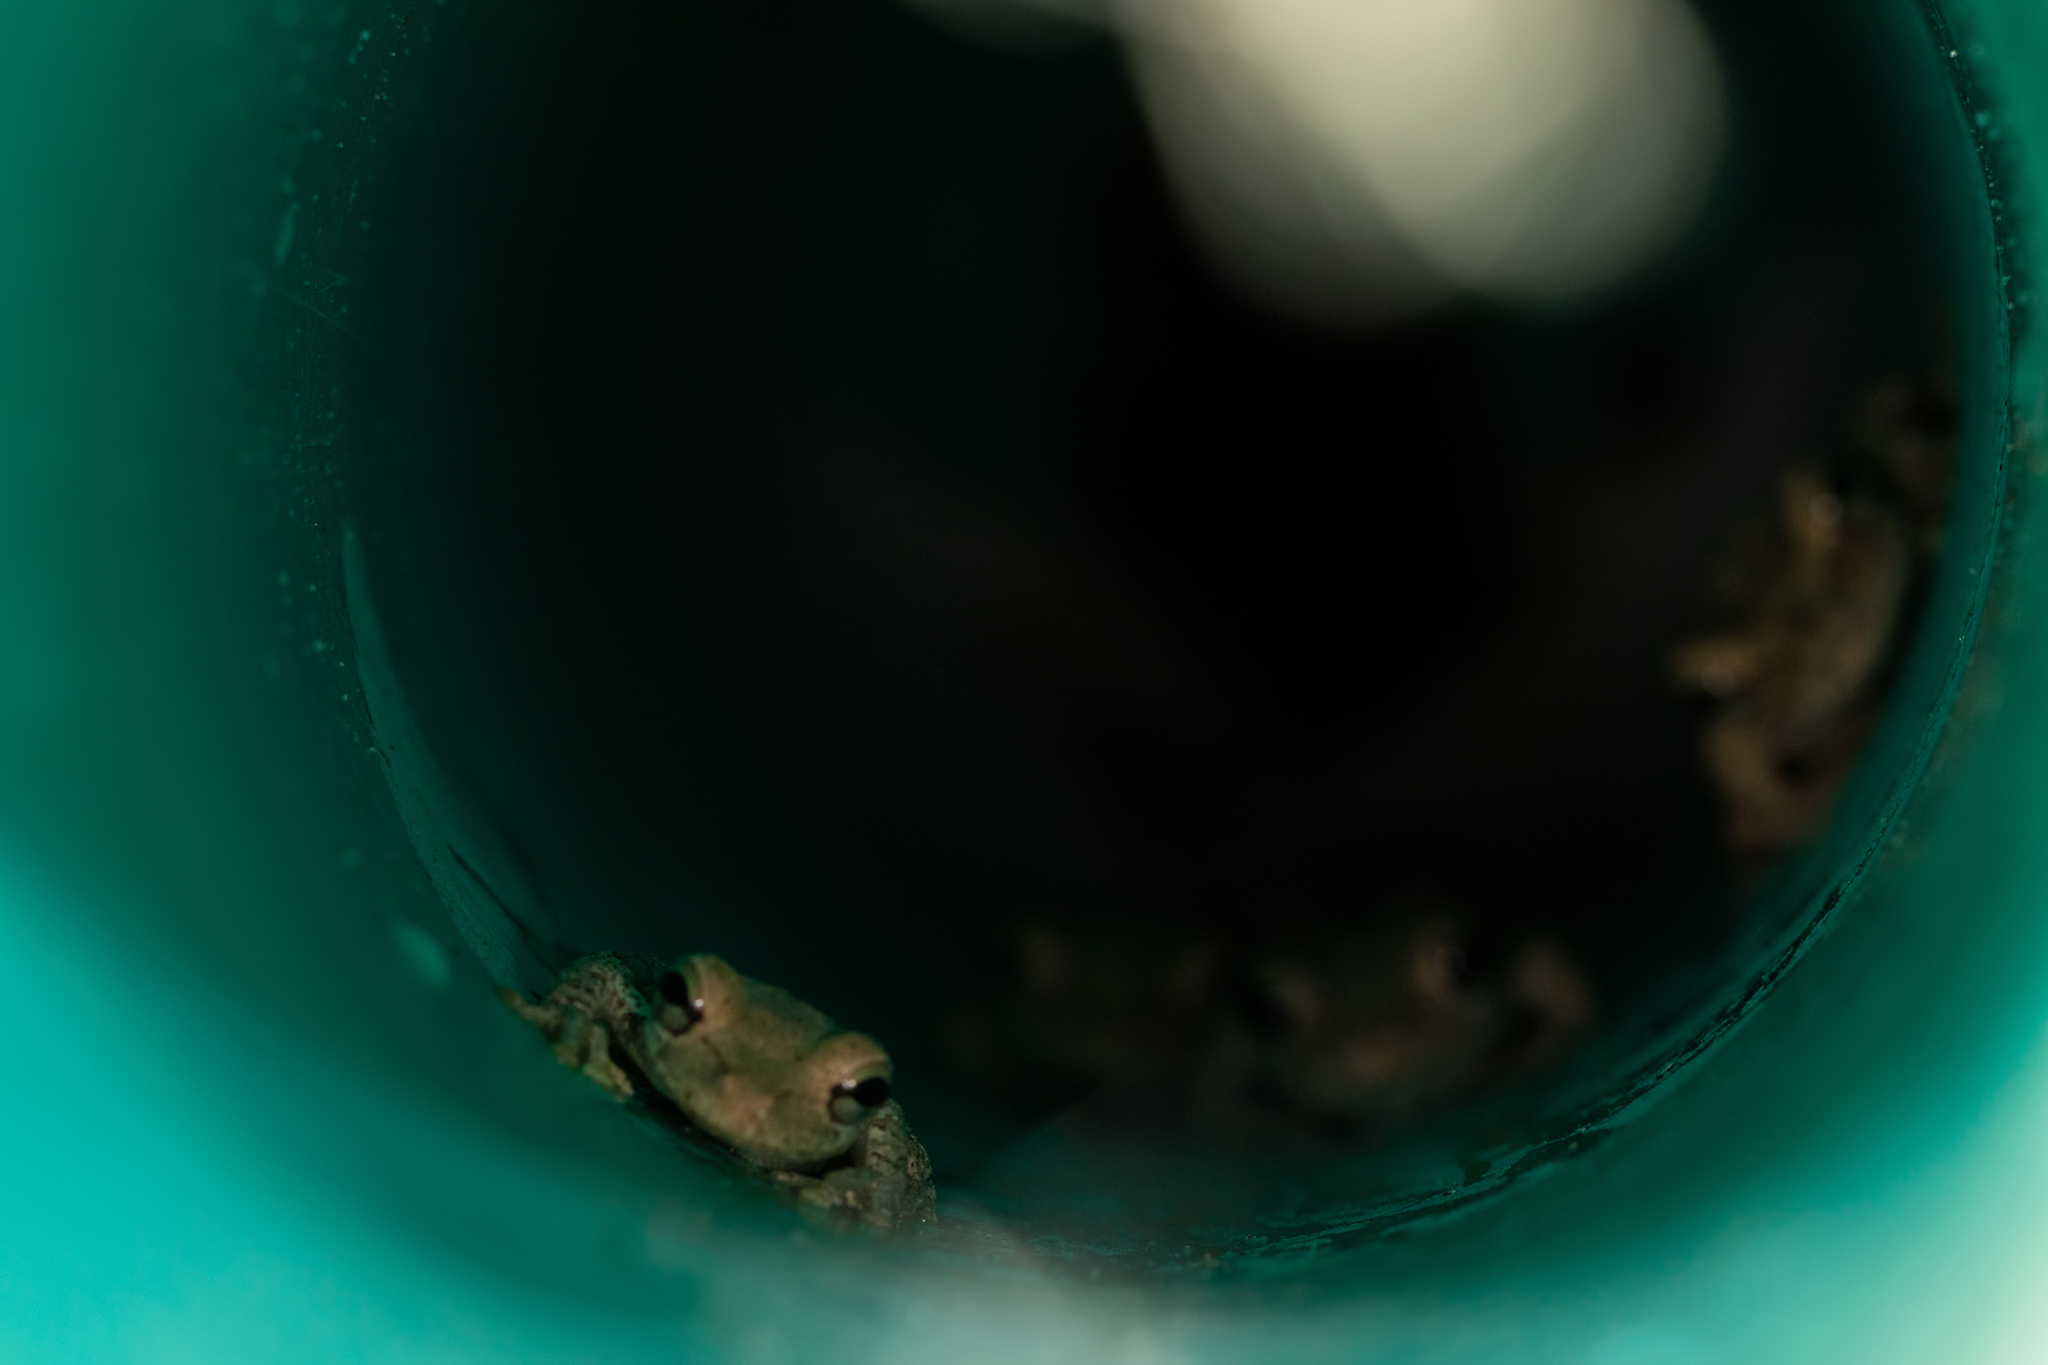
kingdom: Animalia
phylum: Chordata
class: Amphibia
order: Anura
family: Hylidae
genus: Osteopilus
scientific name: Osteopilus septentrionalis
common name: Cuban treefrog
